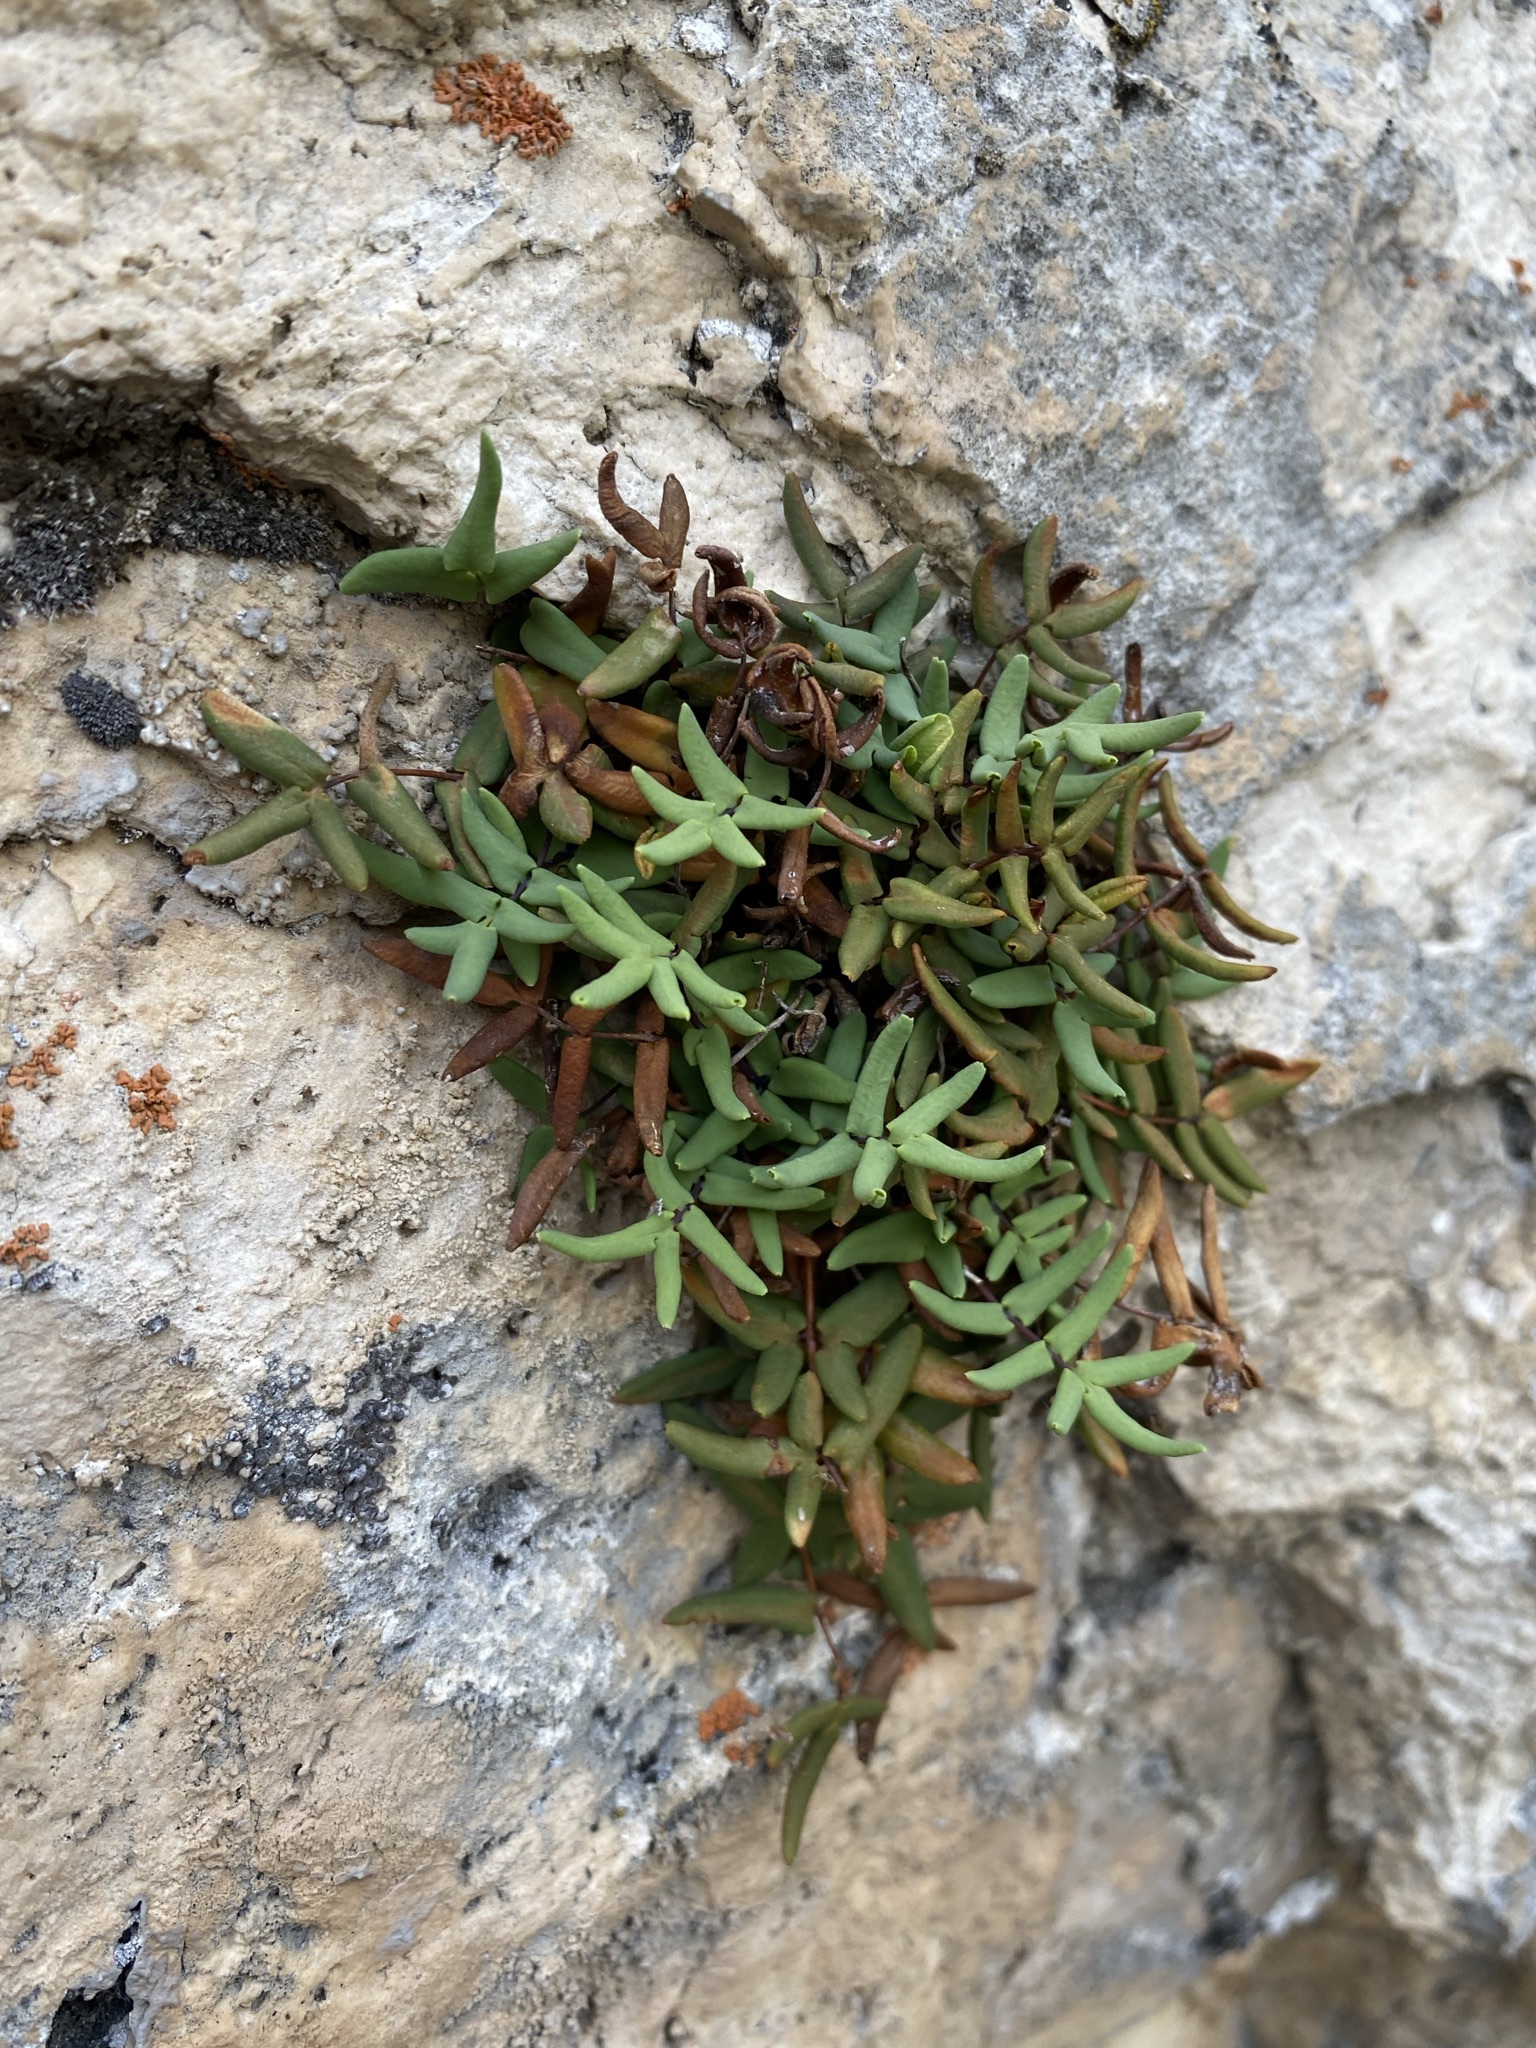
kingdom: Plantae
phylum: Tracheophyta
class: Polypodiopsida
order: Polypodiales
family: Pteridaceae
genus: Pellaea
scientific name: Pellaea glabella
